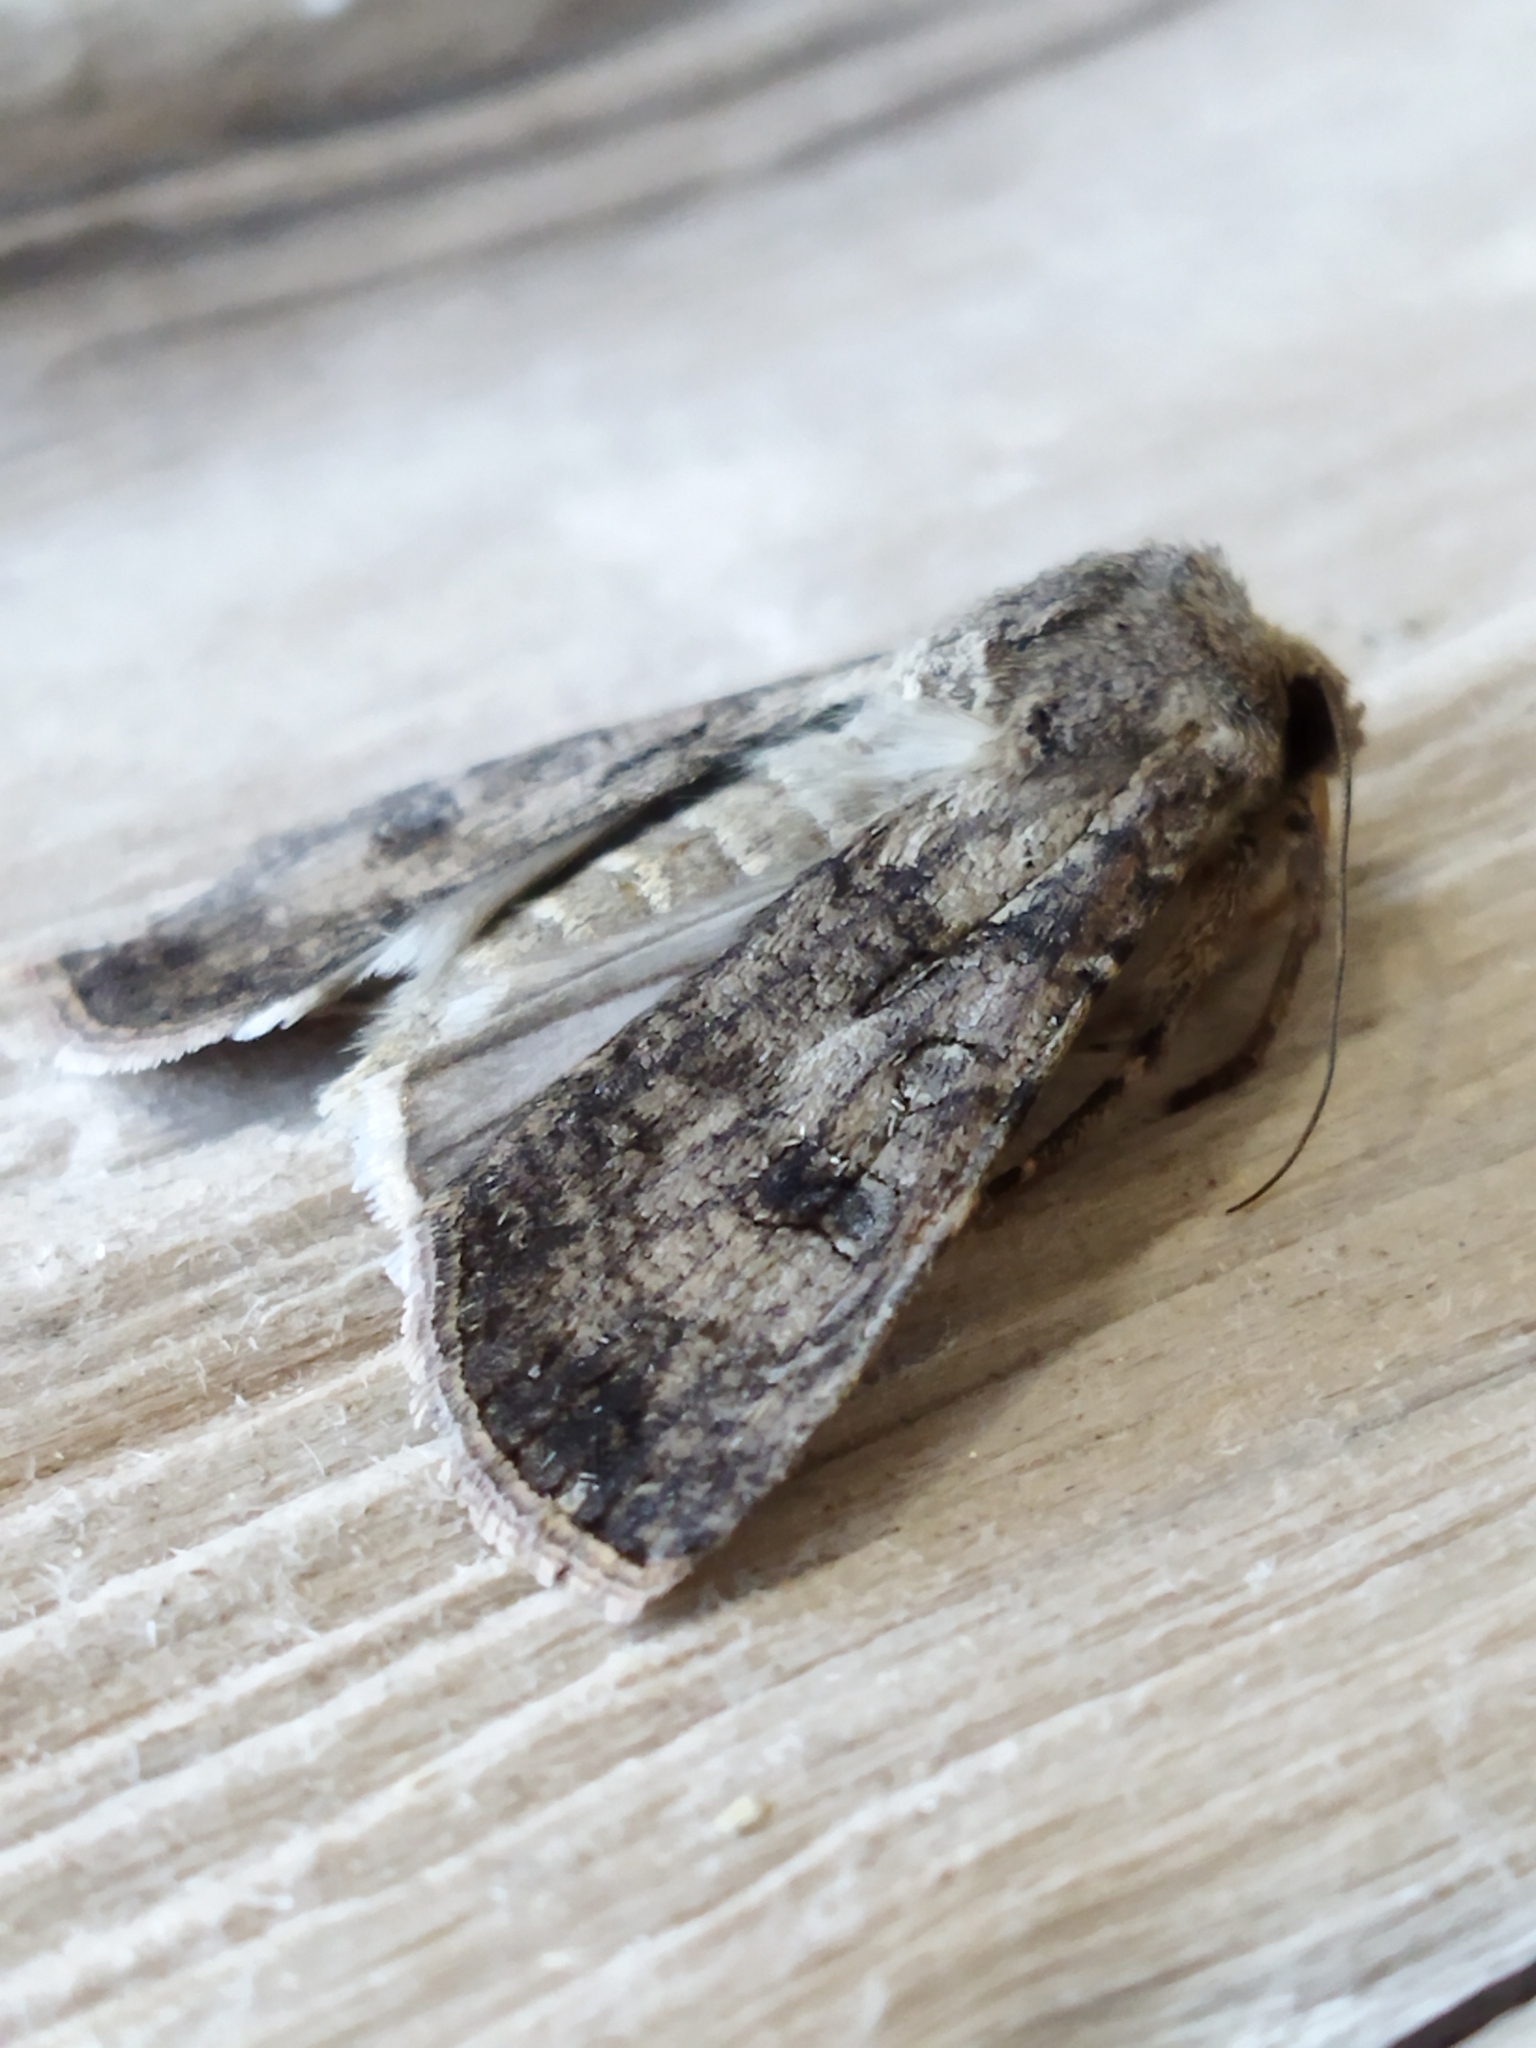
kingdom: Animalia
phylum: Arthropoda
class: Insecta
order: Lepidoptera
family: Noctuidae
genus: Agrotis
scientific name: Agrotis segetum
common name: Turnip moth
